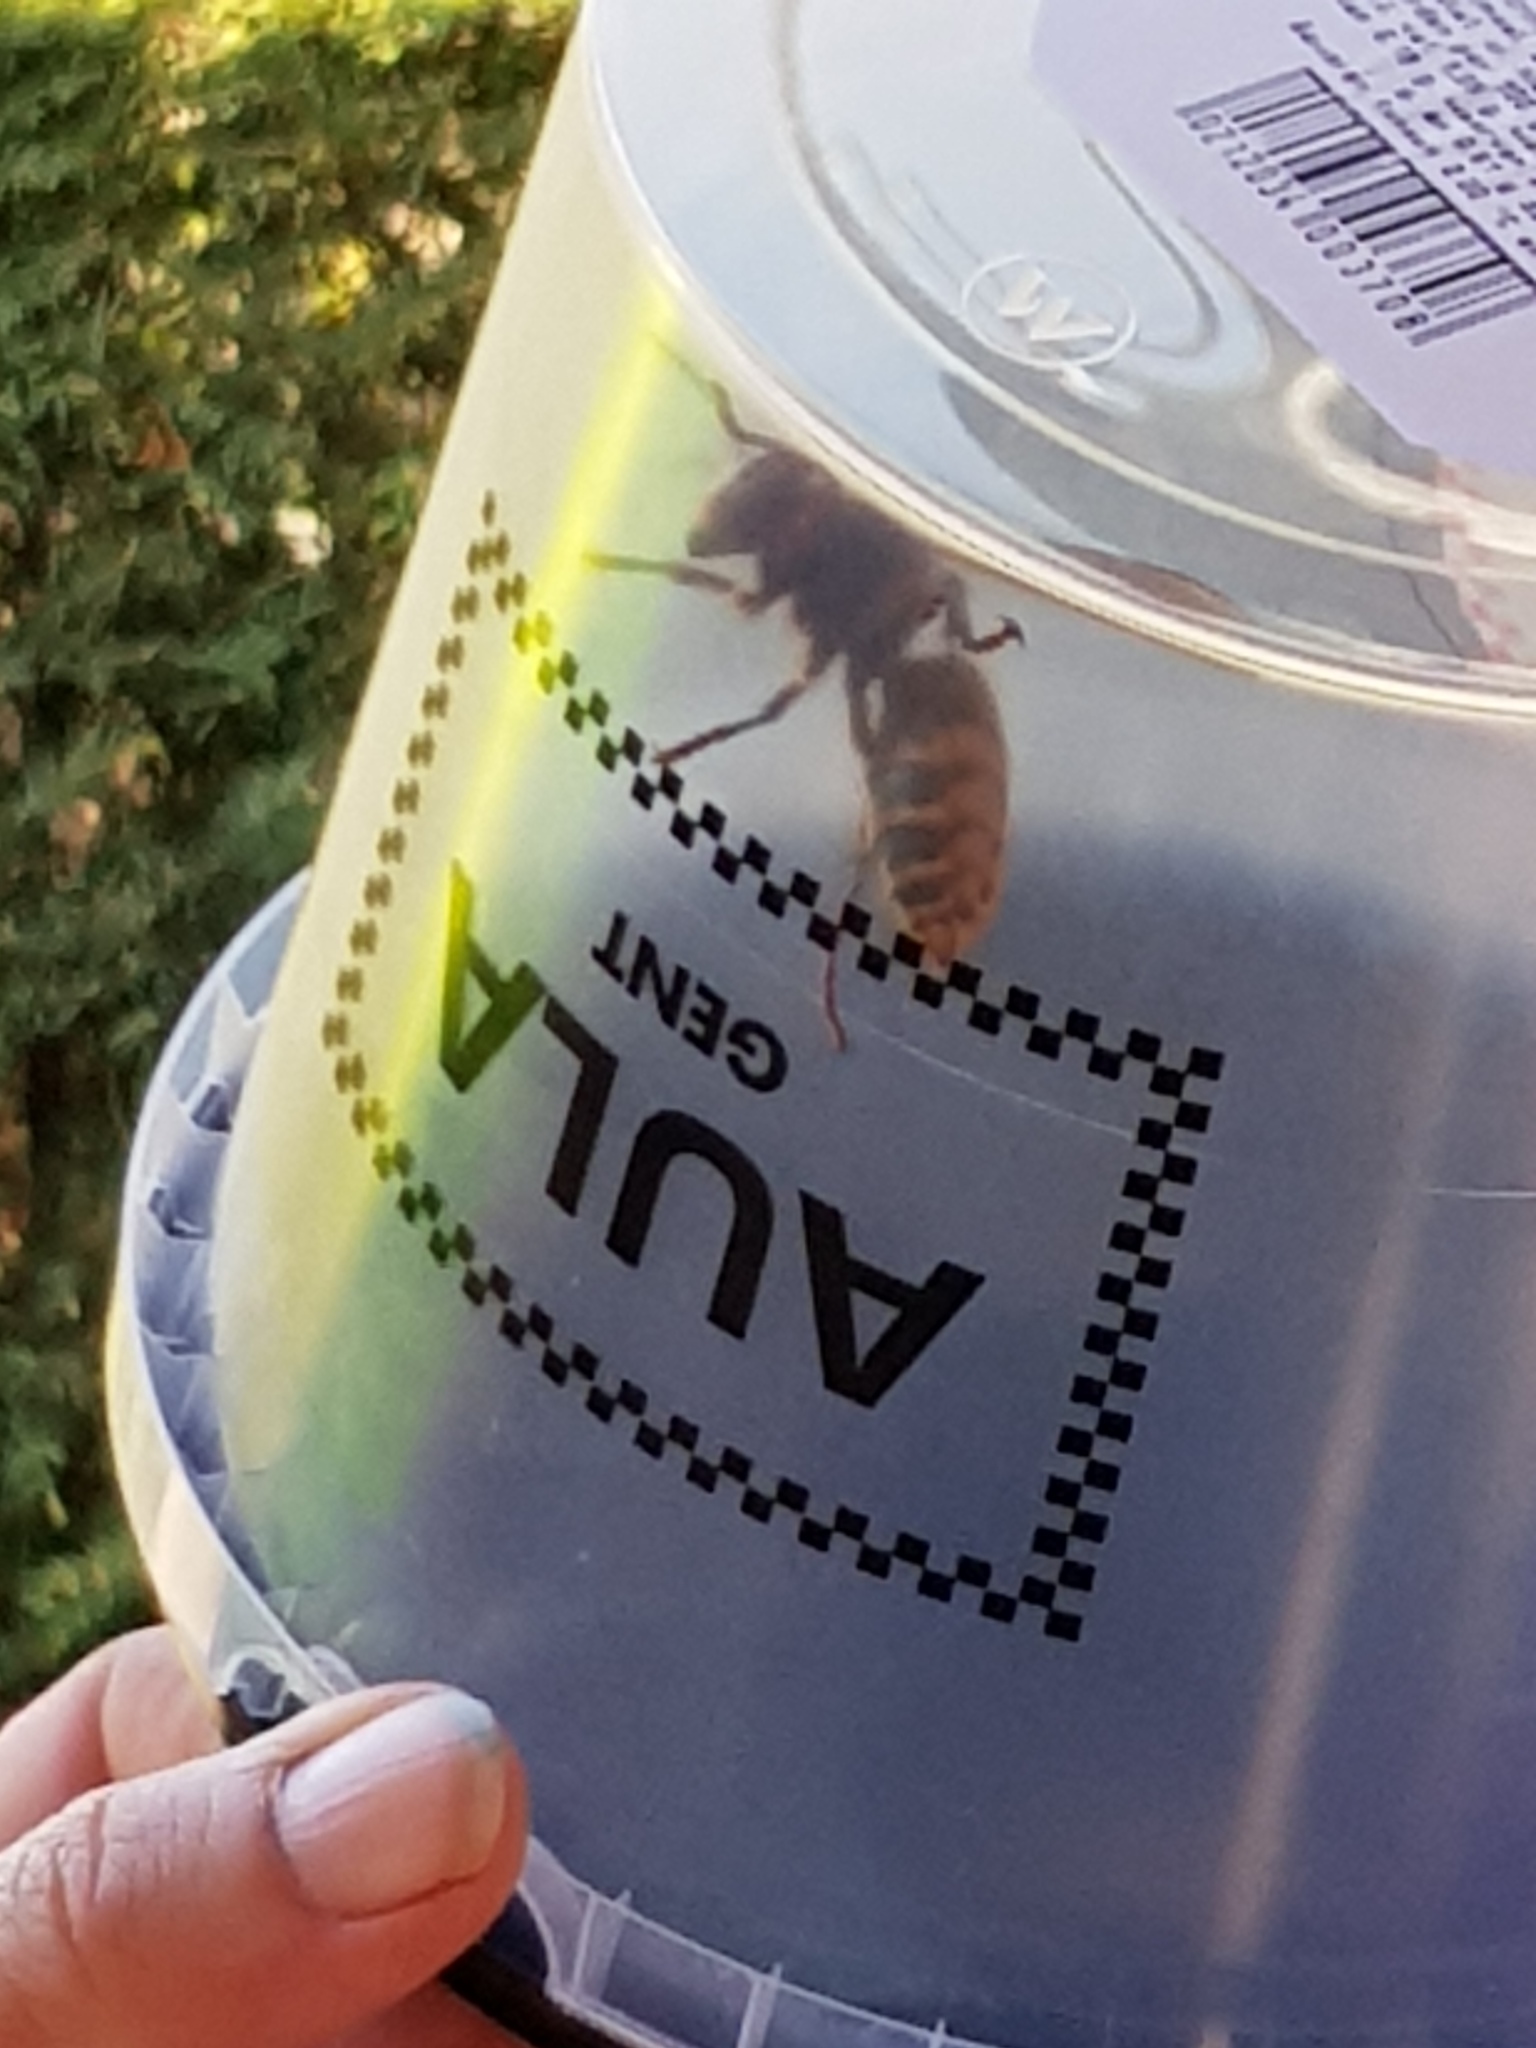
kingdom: Animalia
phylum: Arthropoda
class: Insecta
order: Hymenoptera
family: Vespidae
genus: Vespa
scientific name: Vespa crabro
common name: Hornet
